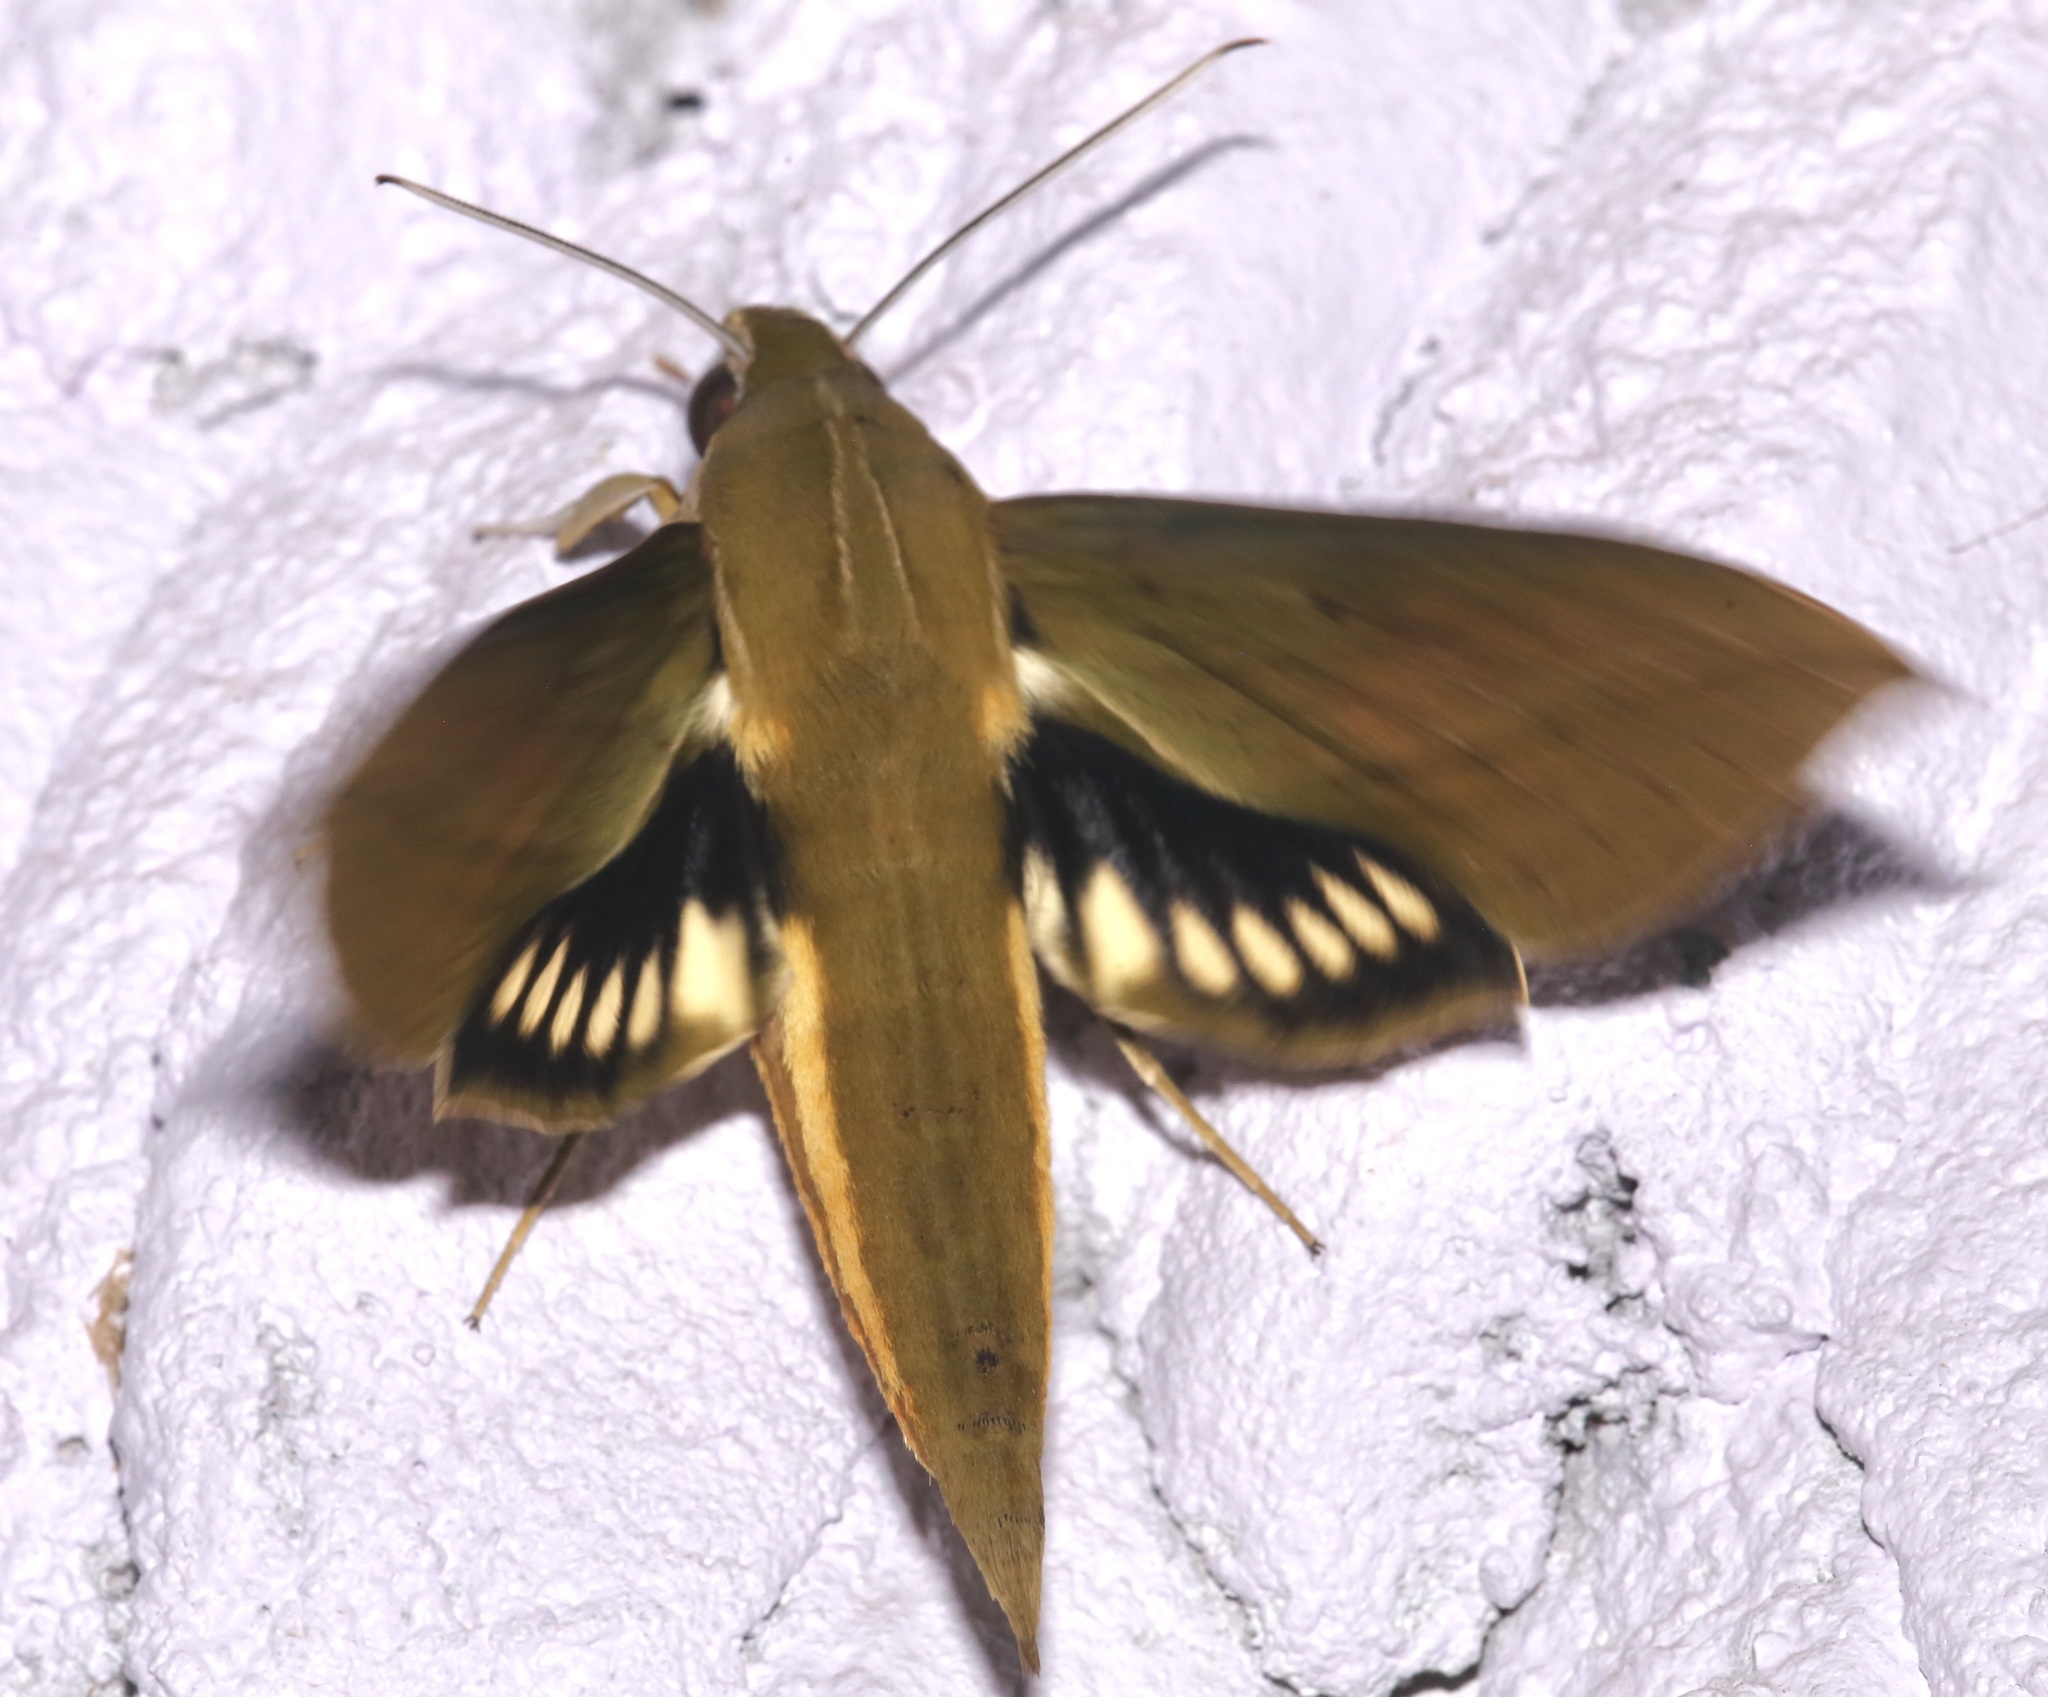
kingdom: Animalia
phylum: Arthropoda
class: Insecta
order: Lepidoptera
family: Sphingidae
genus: Xylophanes
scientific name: Xylophanes crotonis
